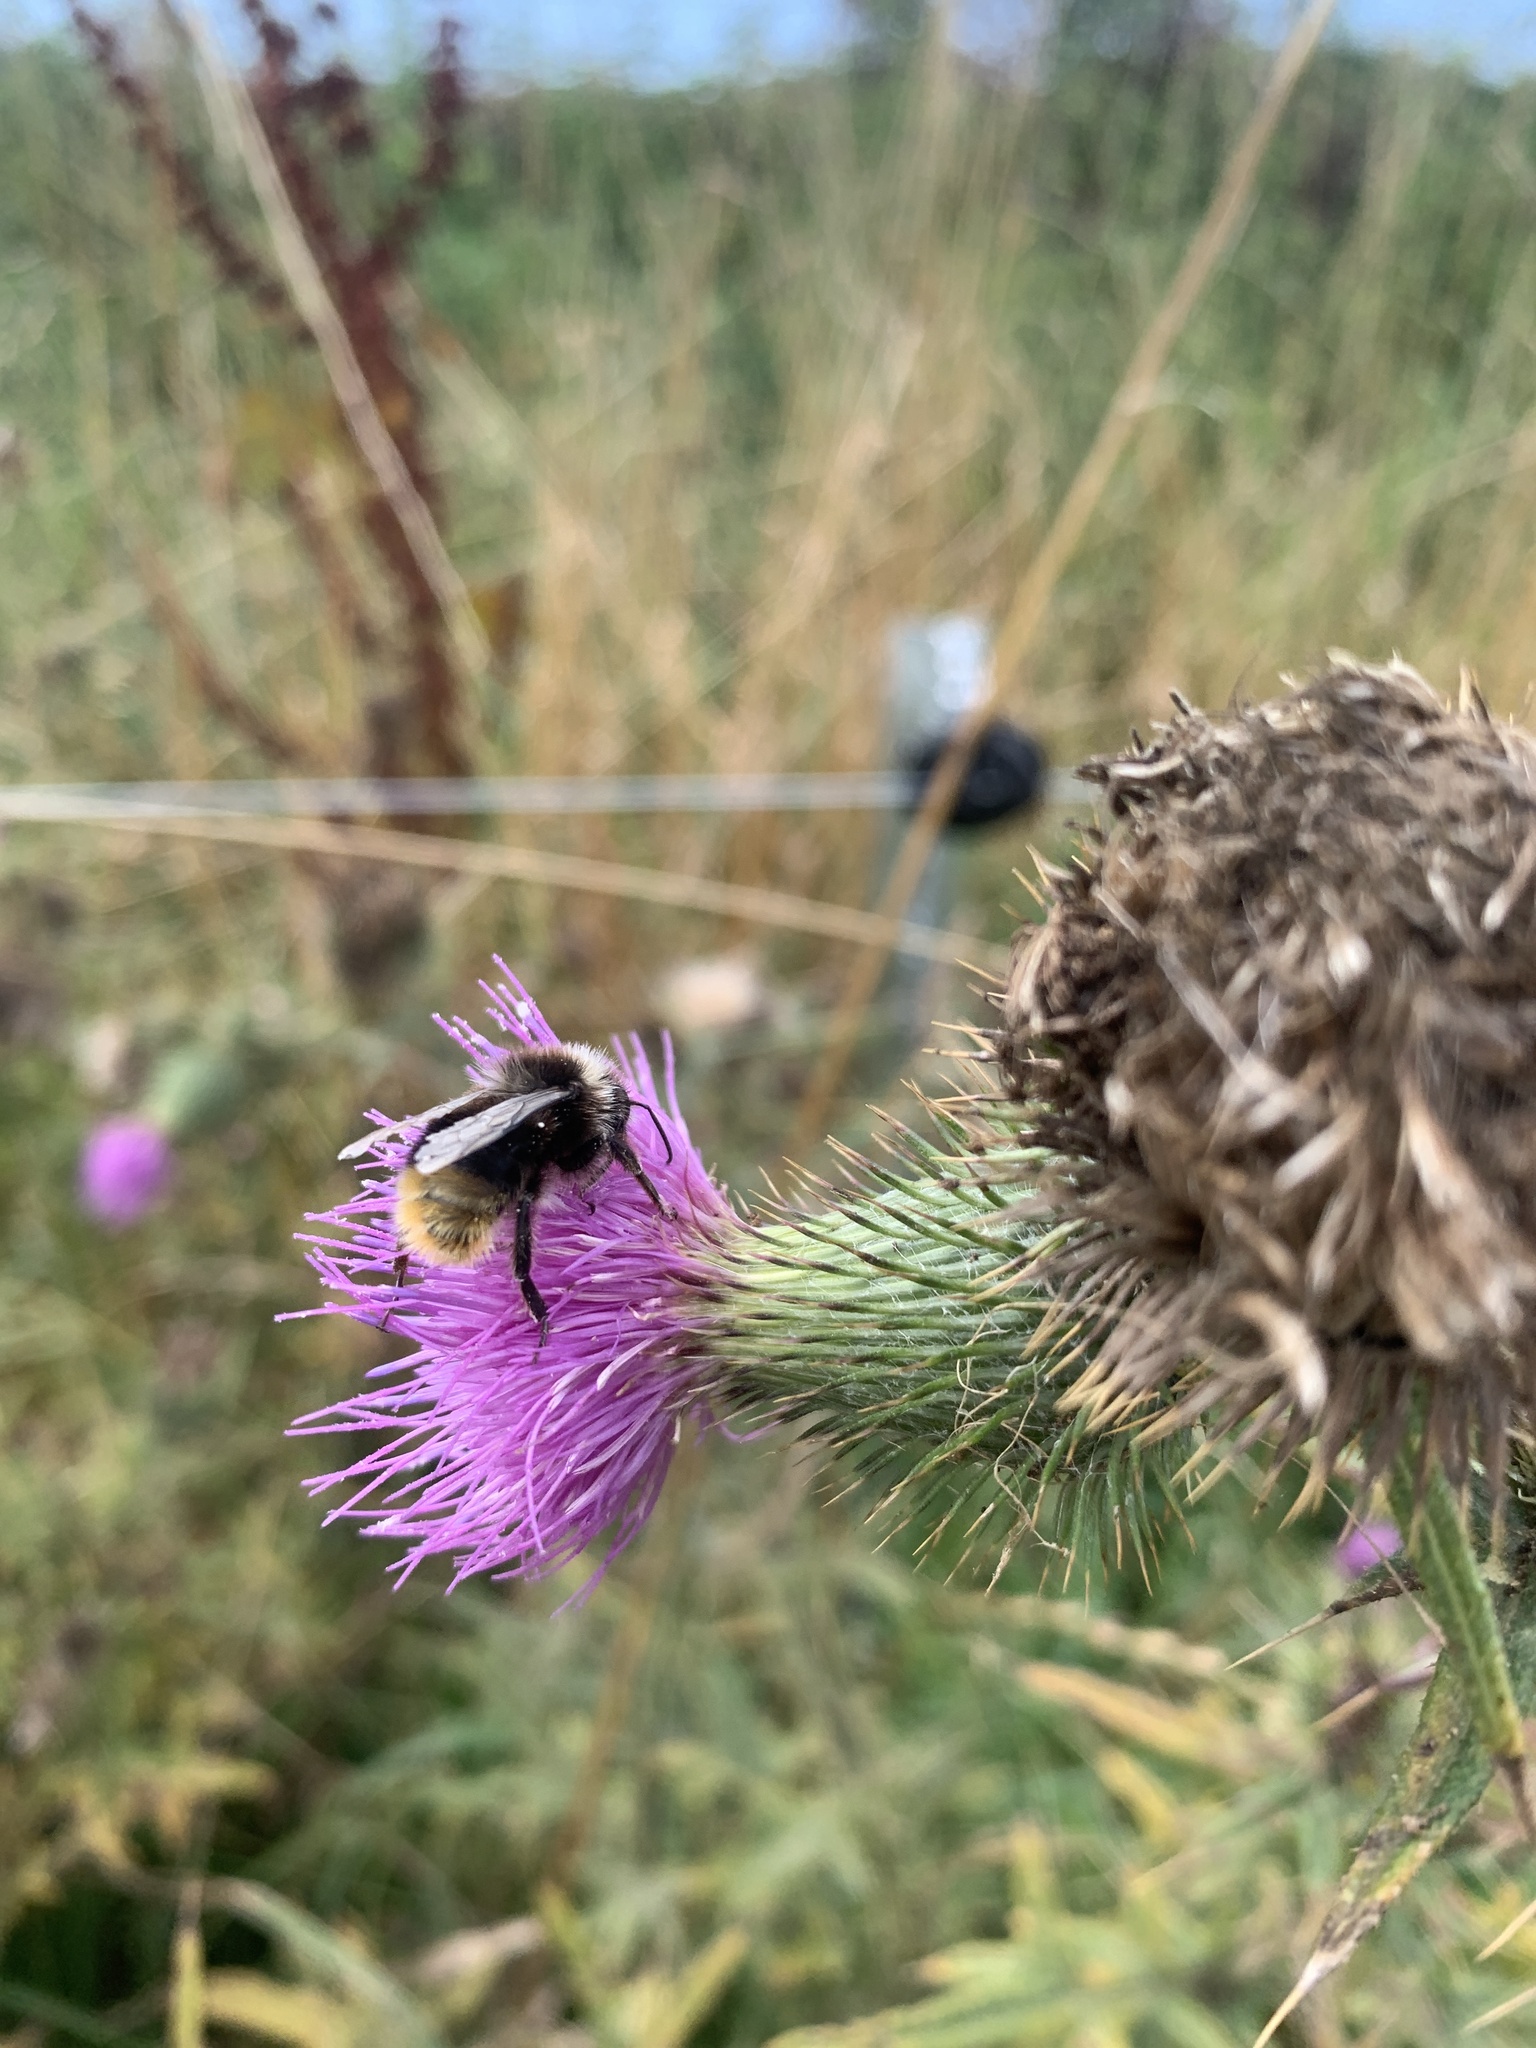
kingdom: Animalia
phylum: Arthropoda
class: Insecta
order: Hymenoptera
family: Apidae
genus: Bombus
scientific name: Bombus lapidarius
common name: Large red-tailed humble-bee
